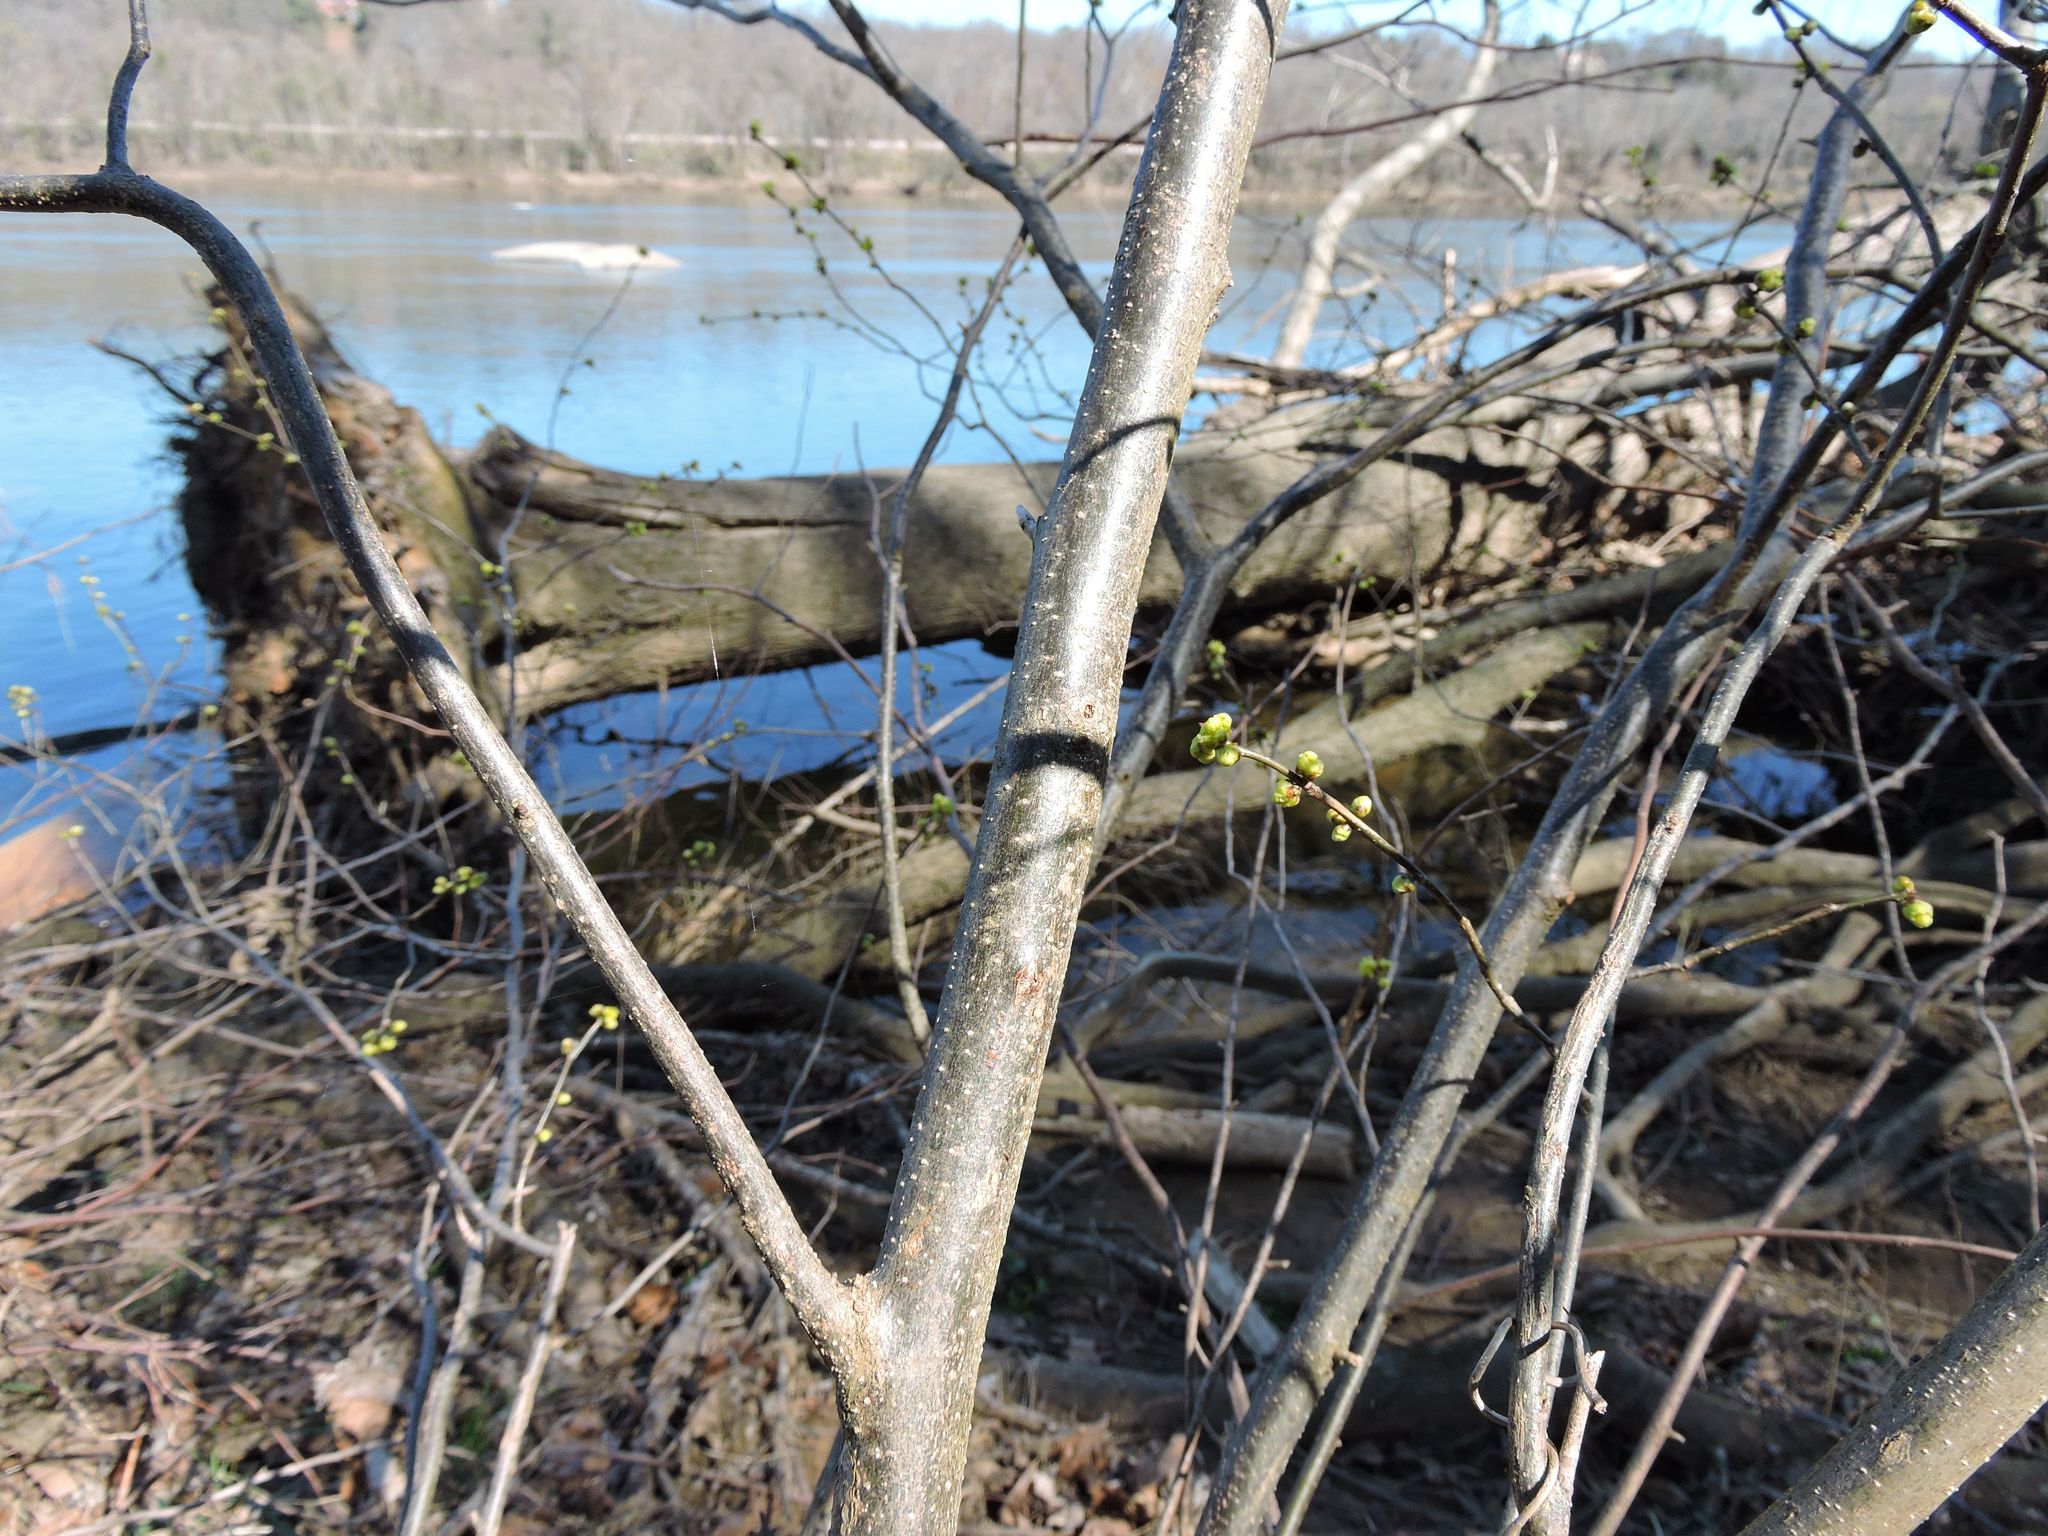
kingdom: Plantae
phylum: Tracheophyta
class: Magnoliopsida
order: Laurales
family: Lauraceae
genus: Lindera
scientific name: Lindera benzoin
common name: Spicebush
